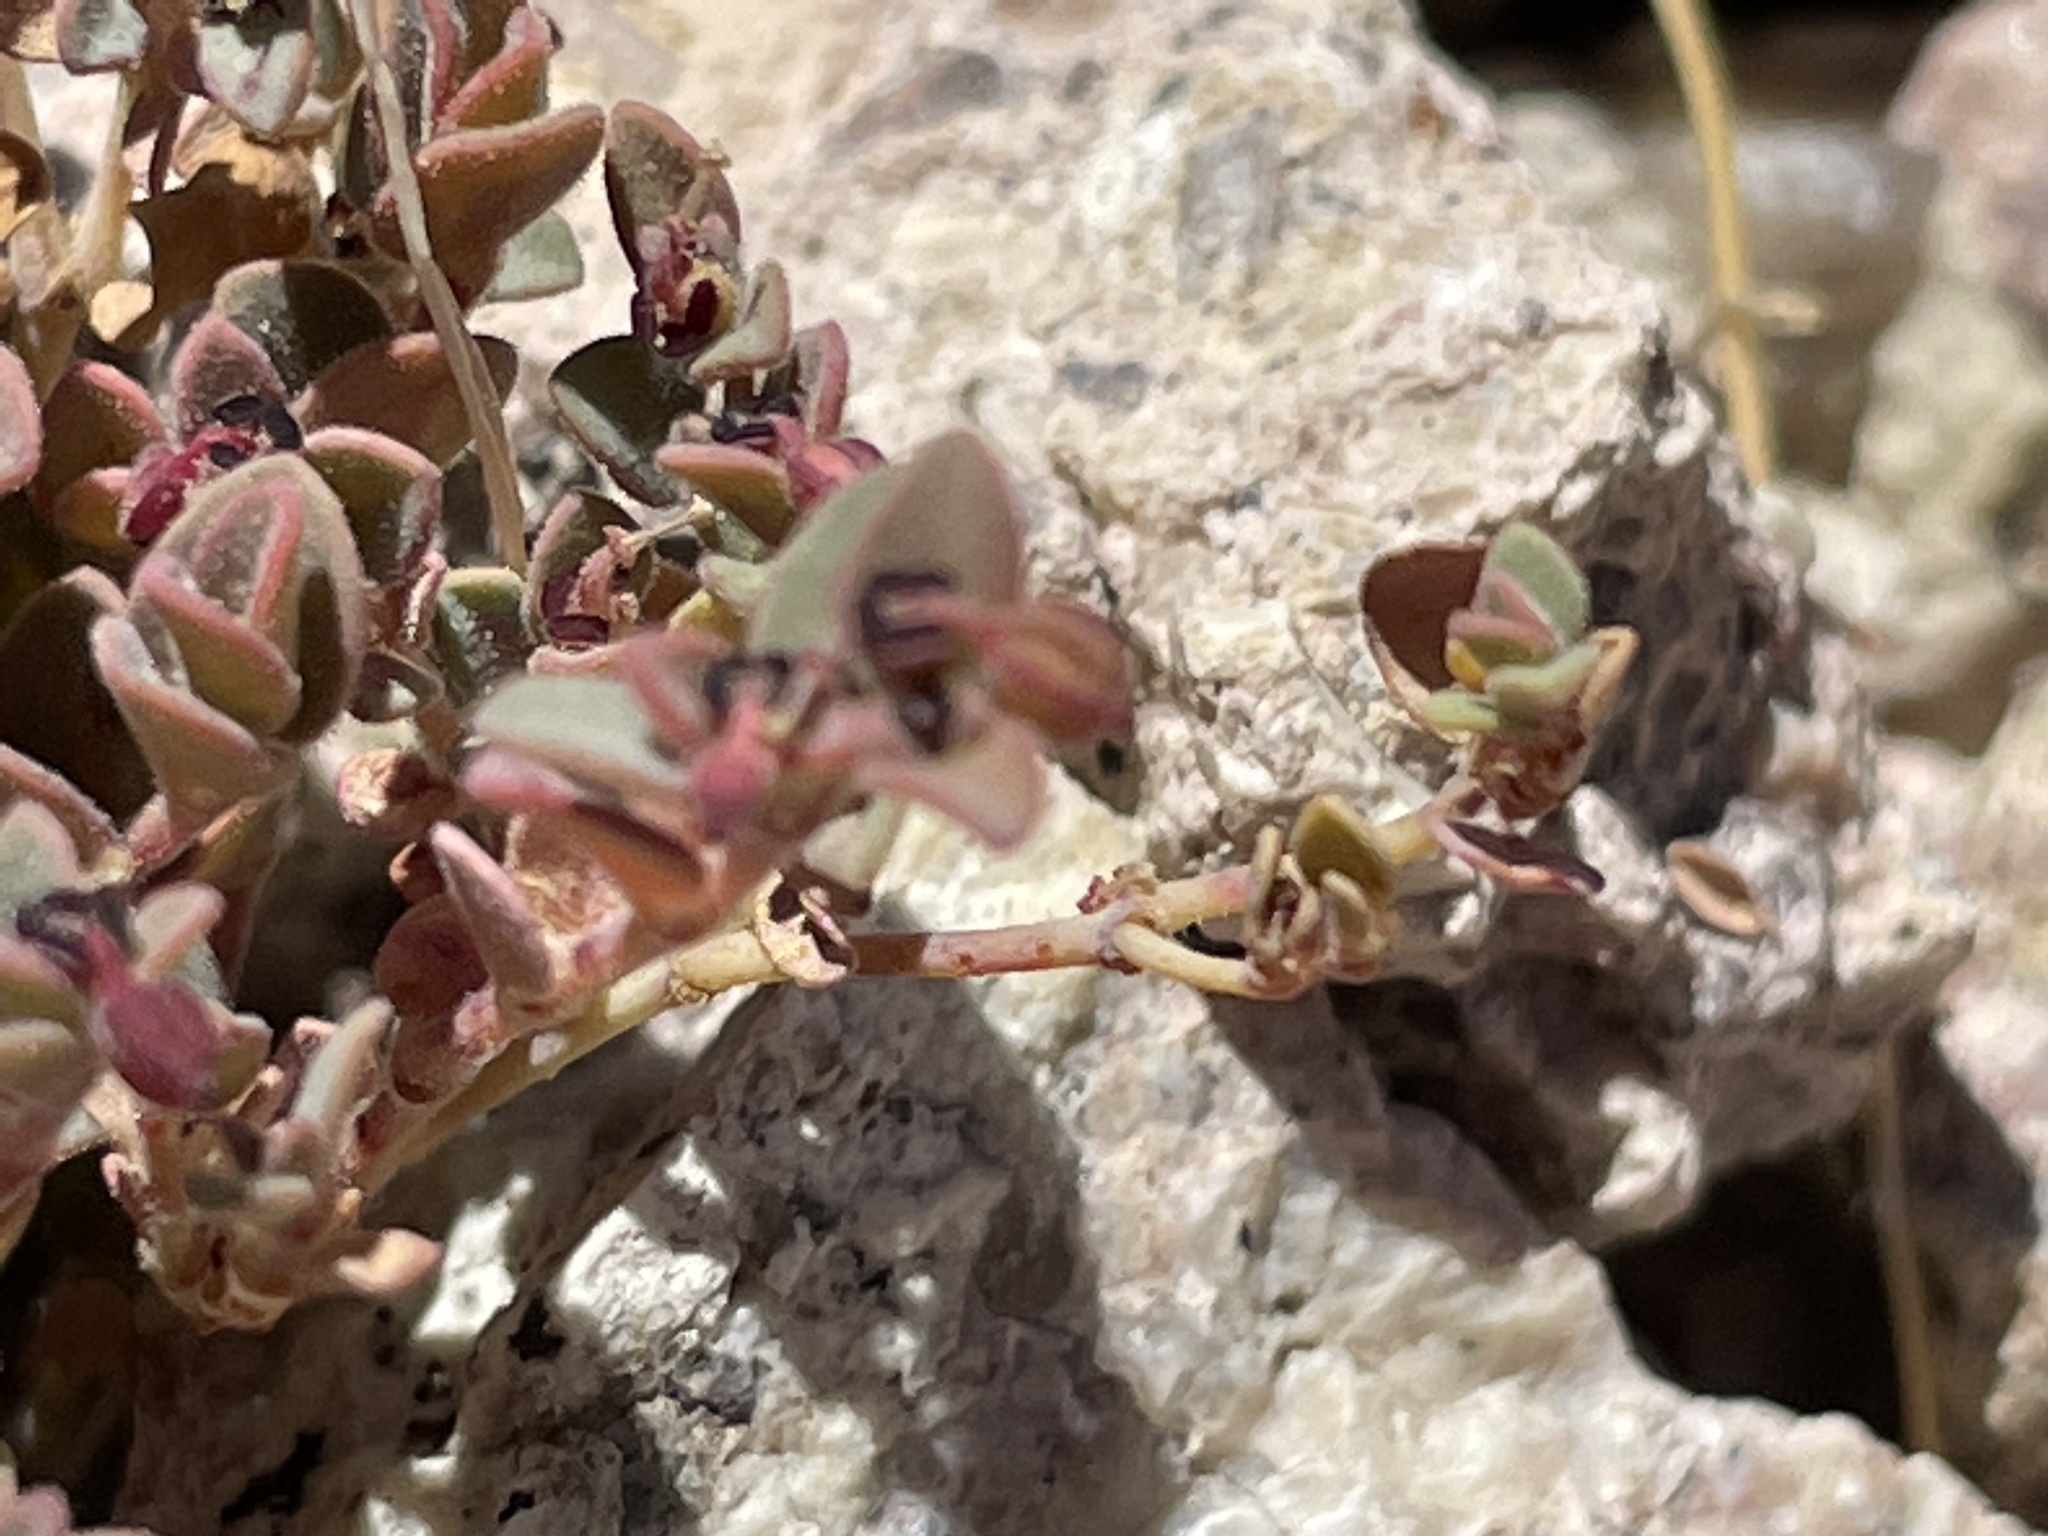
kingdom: Plantae
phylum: Tracheophyta
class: Magnoliopsida
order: Malpighiales
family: Euphorbiaceae
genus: Euphorbia
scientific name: Euphorbia polycarpa
